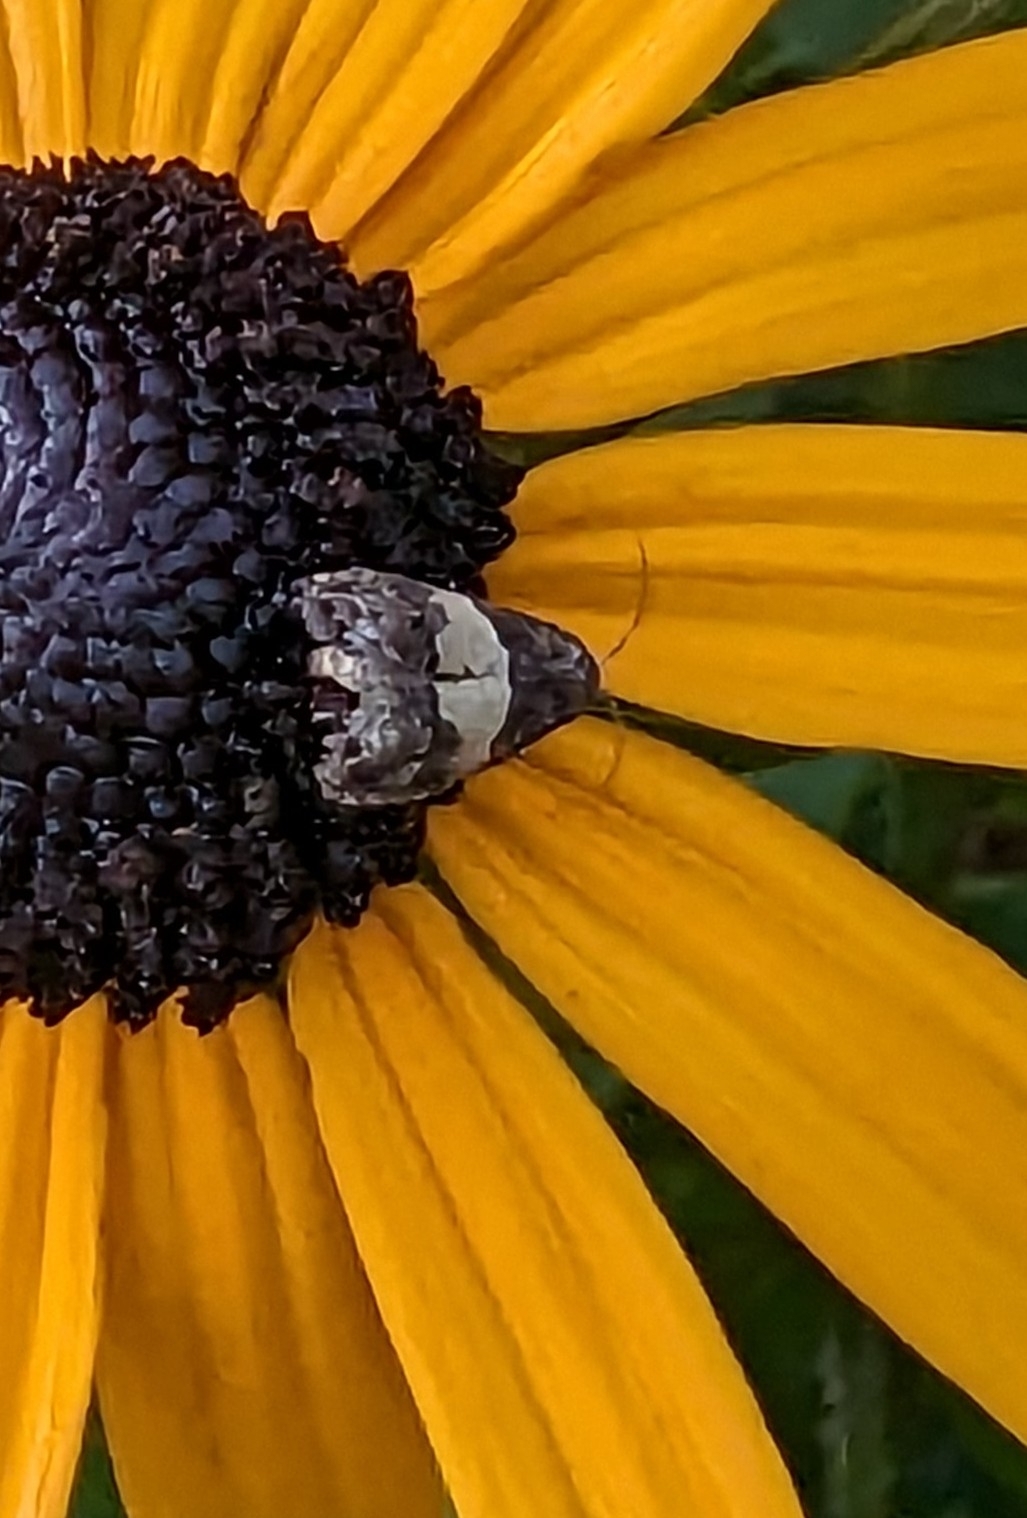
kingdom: Animalia
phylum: Arthropoda
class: Insecta
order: Lepidoptera
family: Tortricidae
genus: Epiblema
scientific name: Epiblema glenni
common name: Glenn's epiblema
